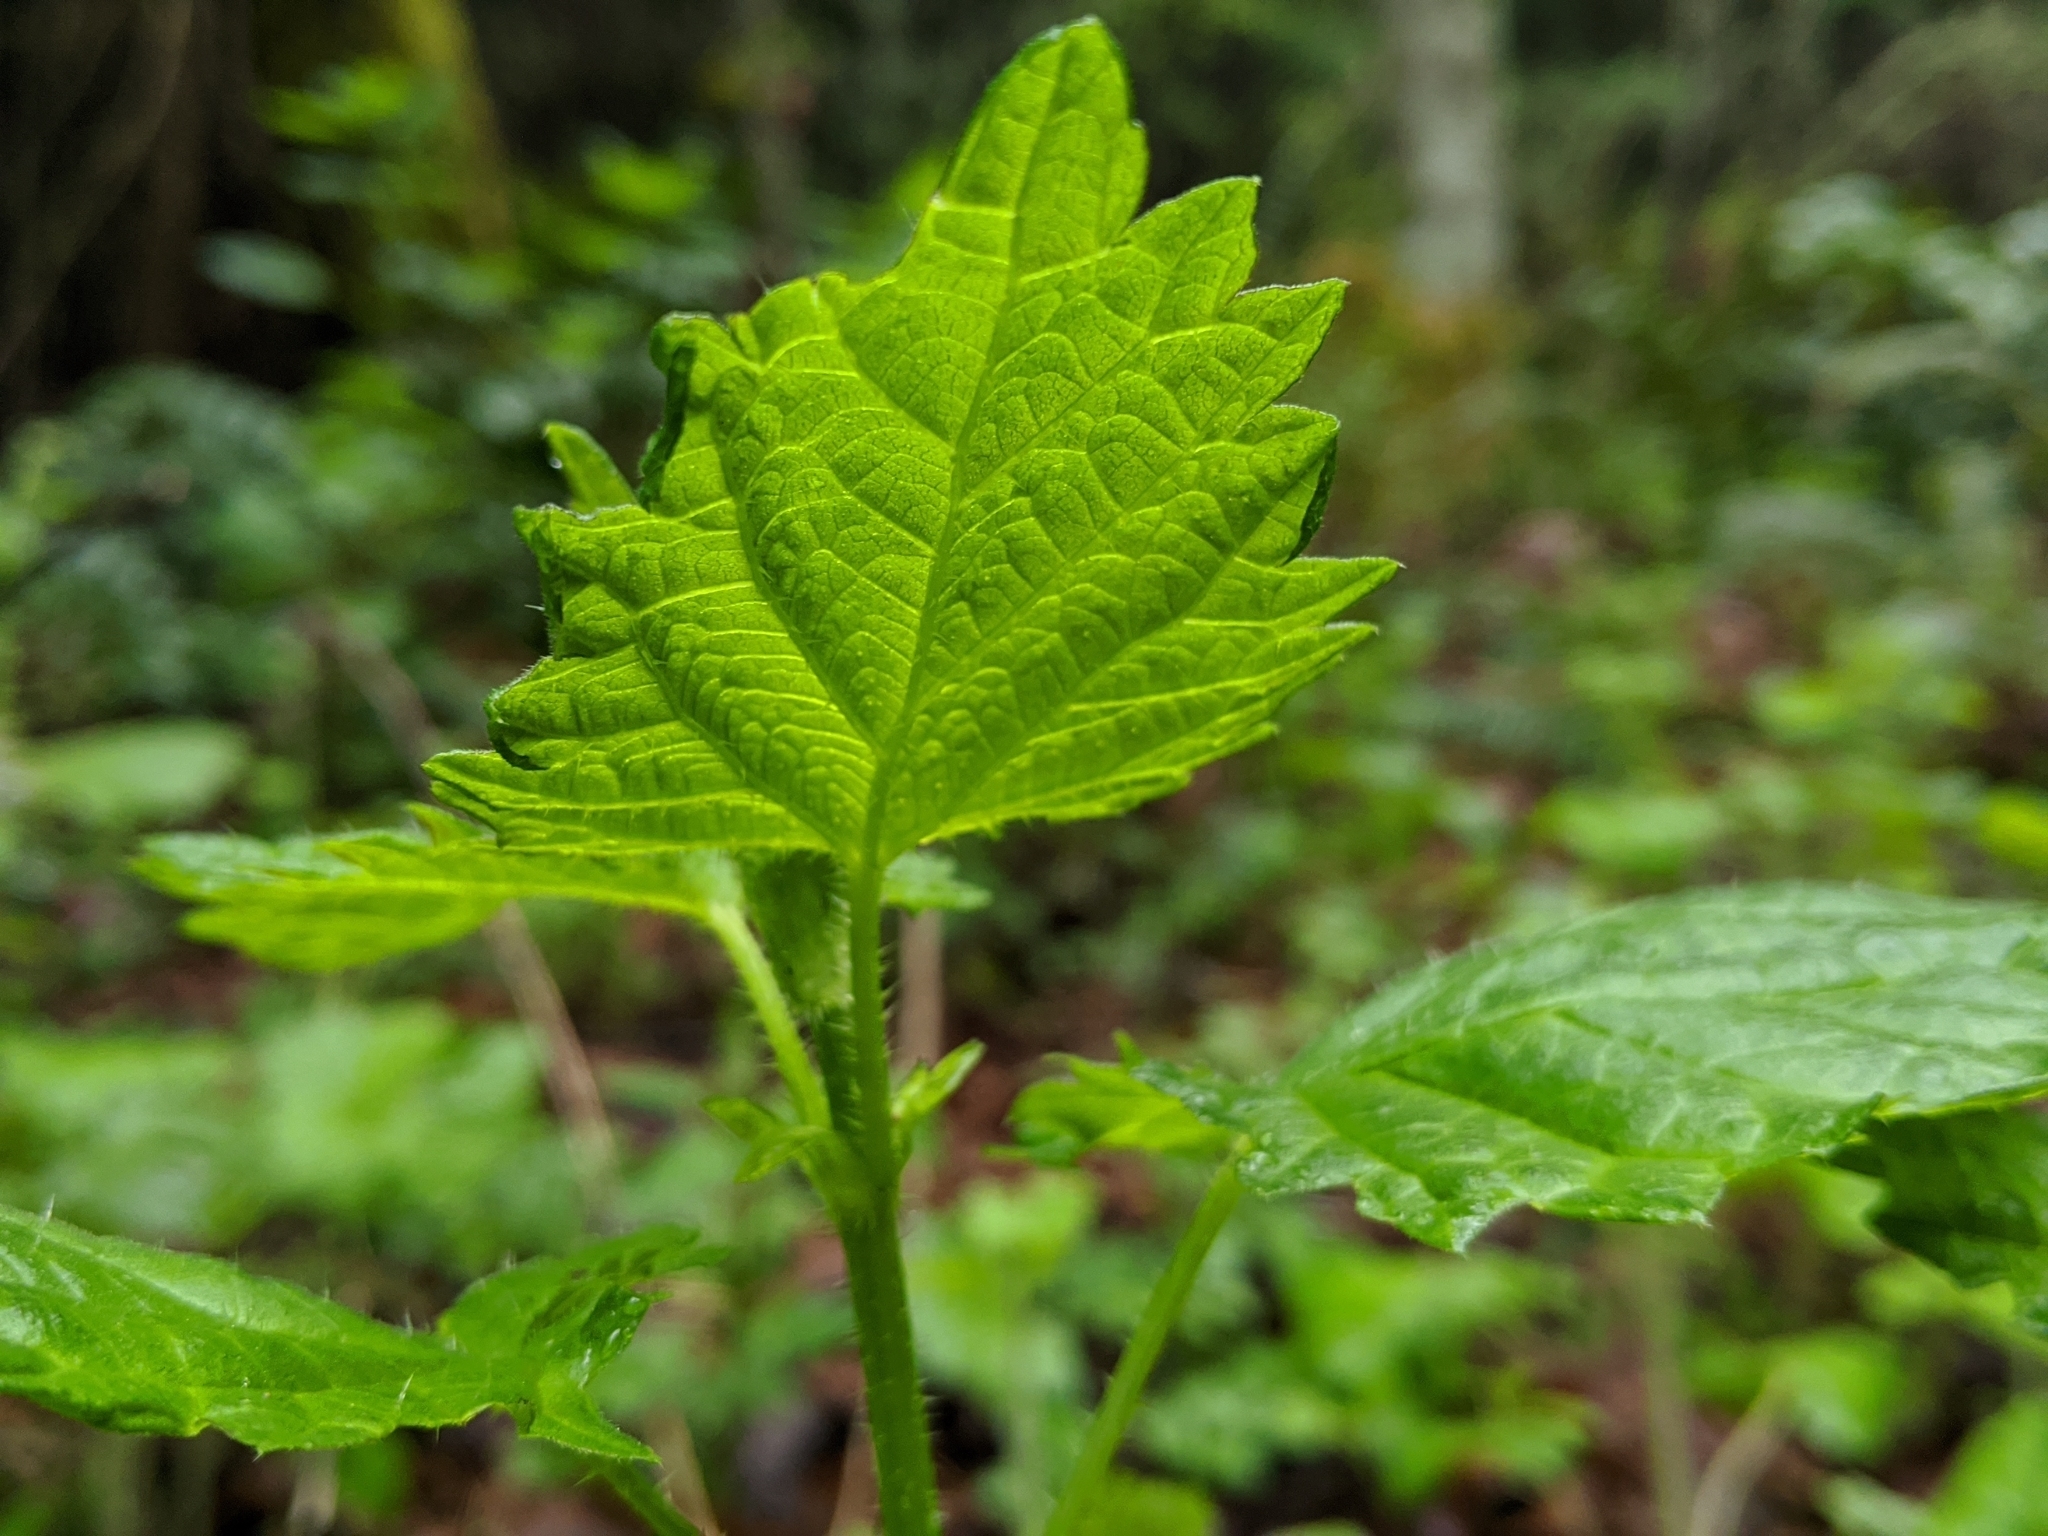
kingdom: Plantae
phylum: Tracheophyta
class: Magnoliopsida
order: Rosales
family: Urticaceae
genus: Urtica
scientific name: Urtica gracilis
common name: Slender stinging nettle
